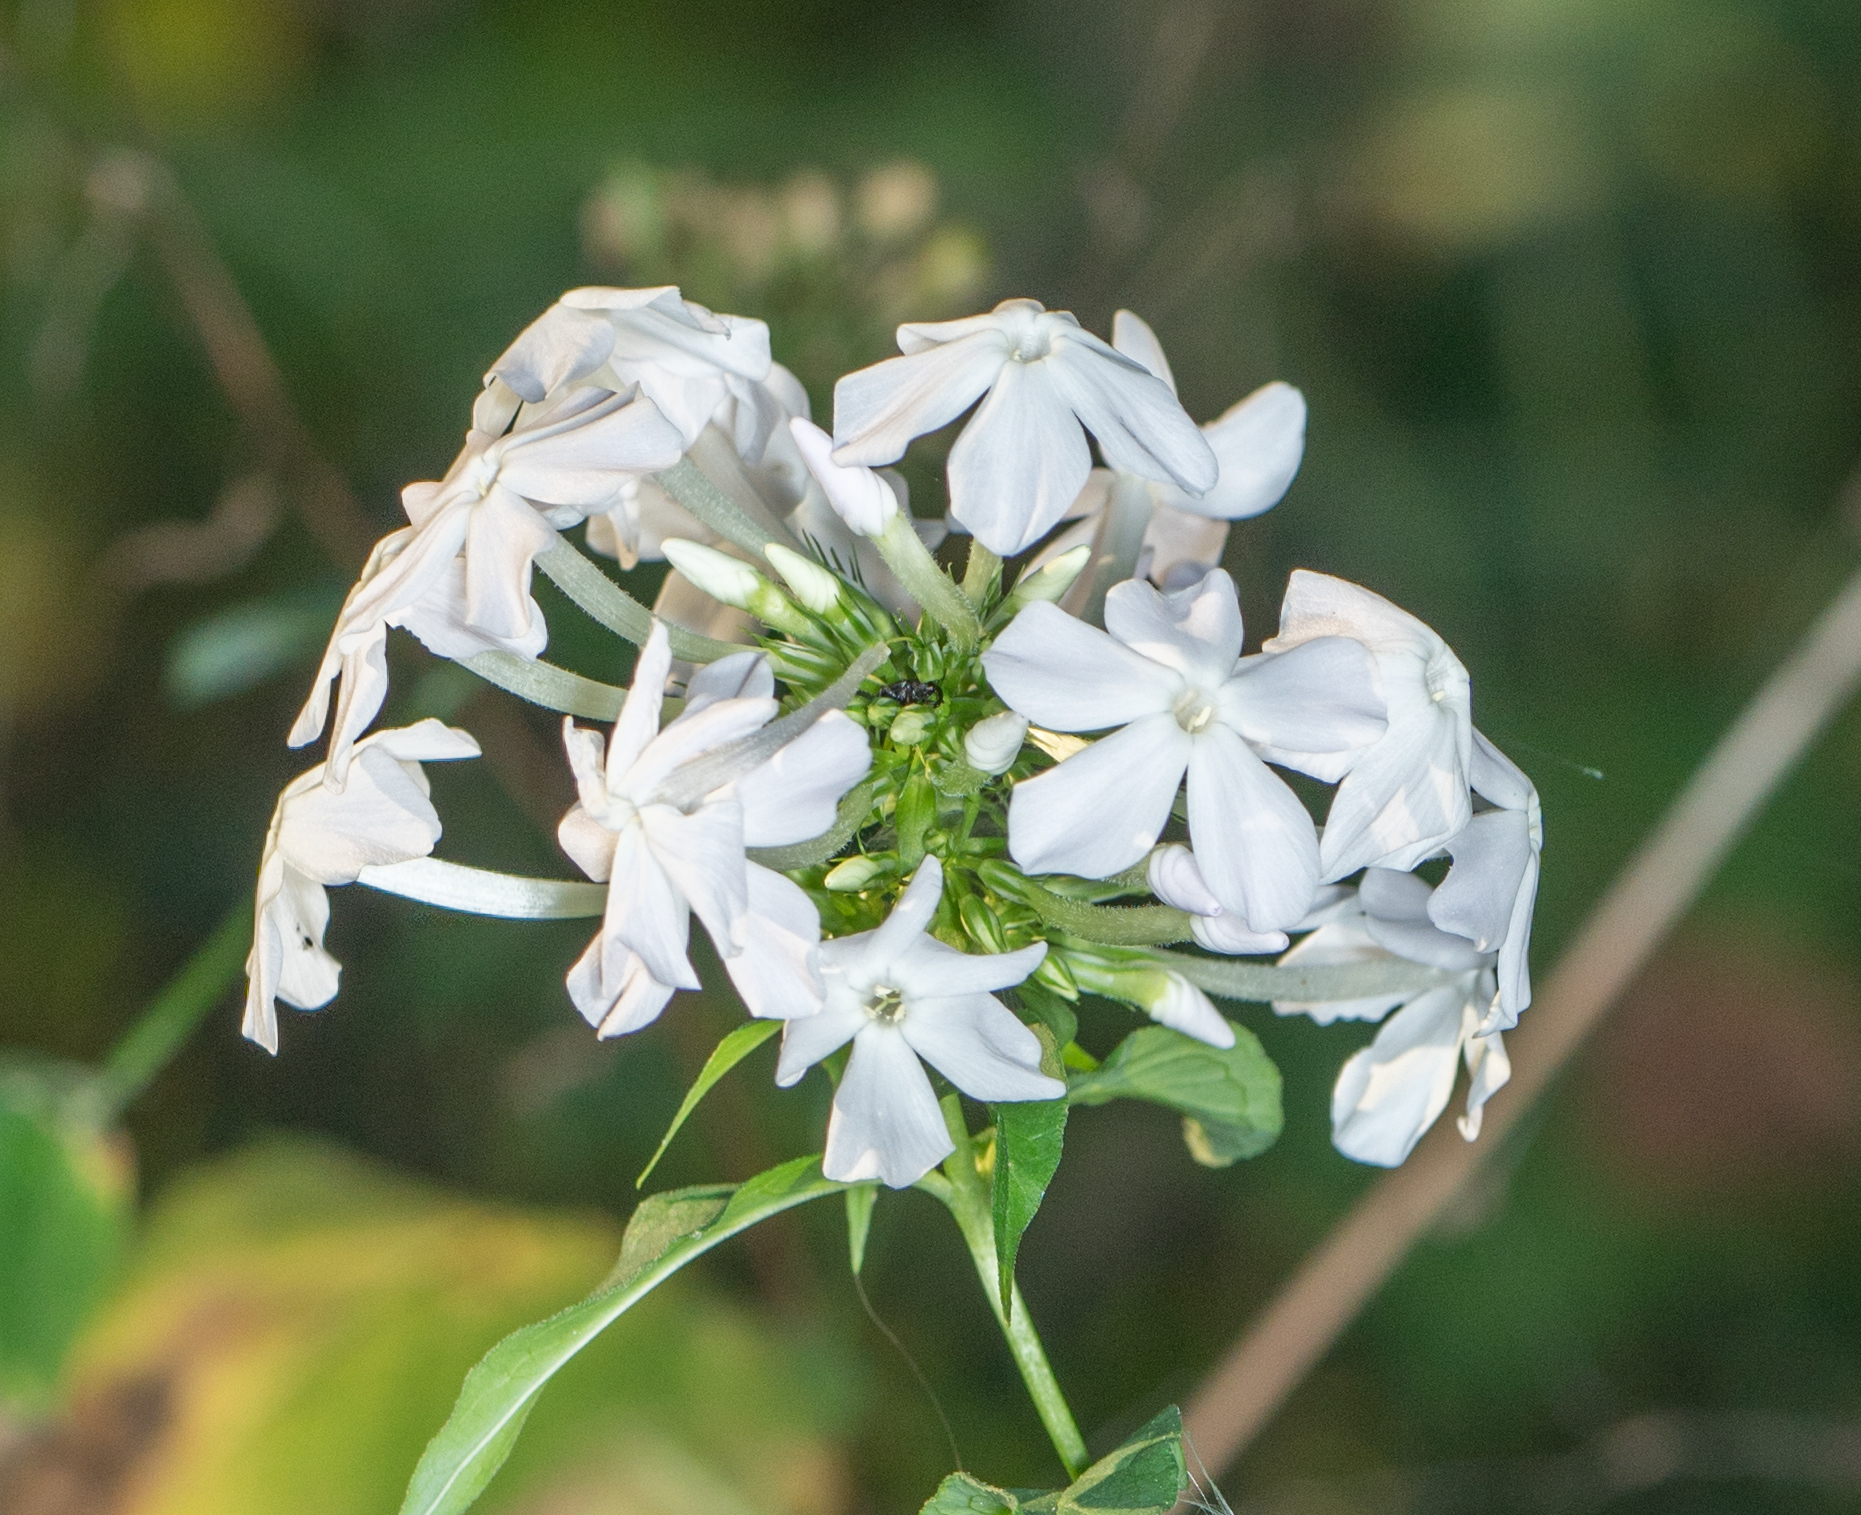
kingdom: Plantae
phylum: Tracheophyta
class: Magnoliopsida
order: Ericales
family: Polemoniaceae
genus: Phlox
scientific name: Phlox paniculata
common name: Fall phlox
